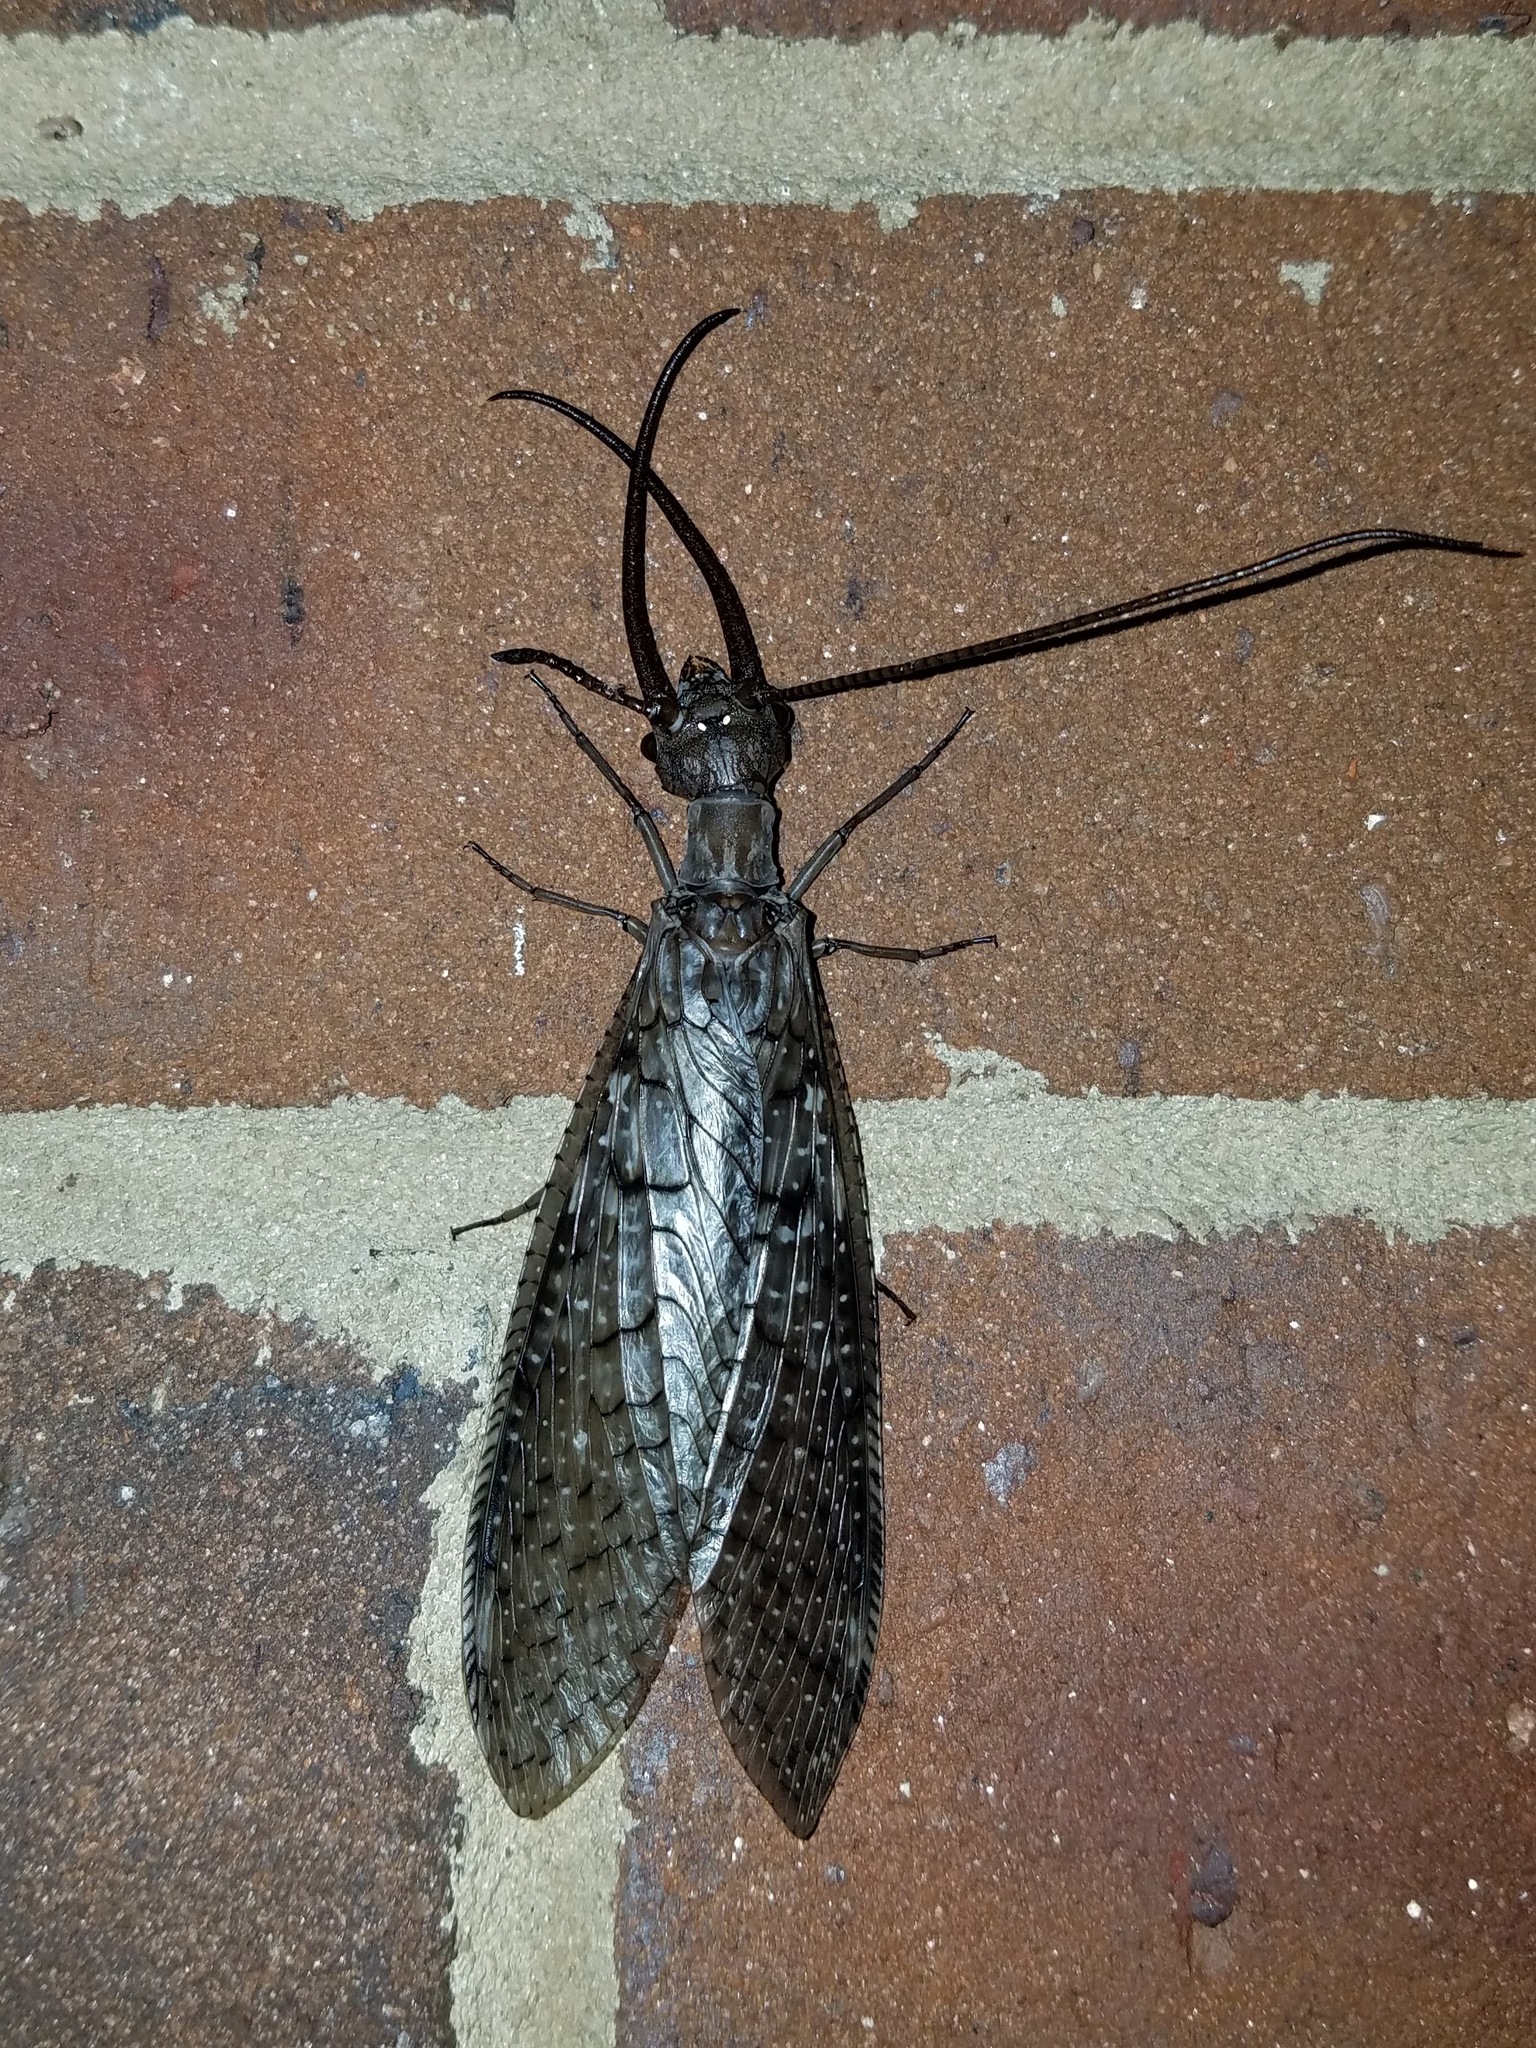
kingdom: Animalia
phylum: Arthropoda
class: Insecta
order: Megaloptera
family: Corydalidae
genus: Corydalus
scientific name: Corydalus cornutus
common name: Dobsonfly
